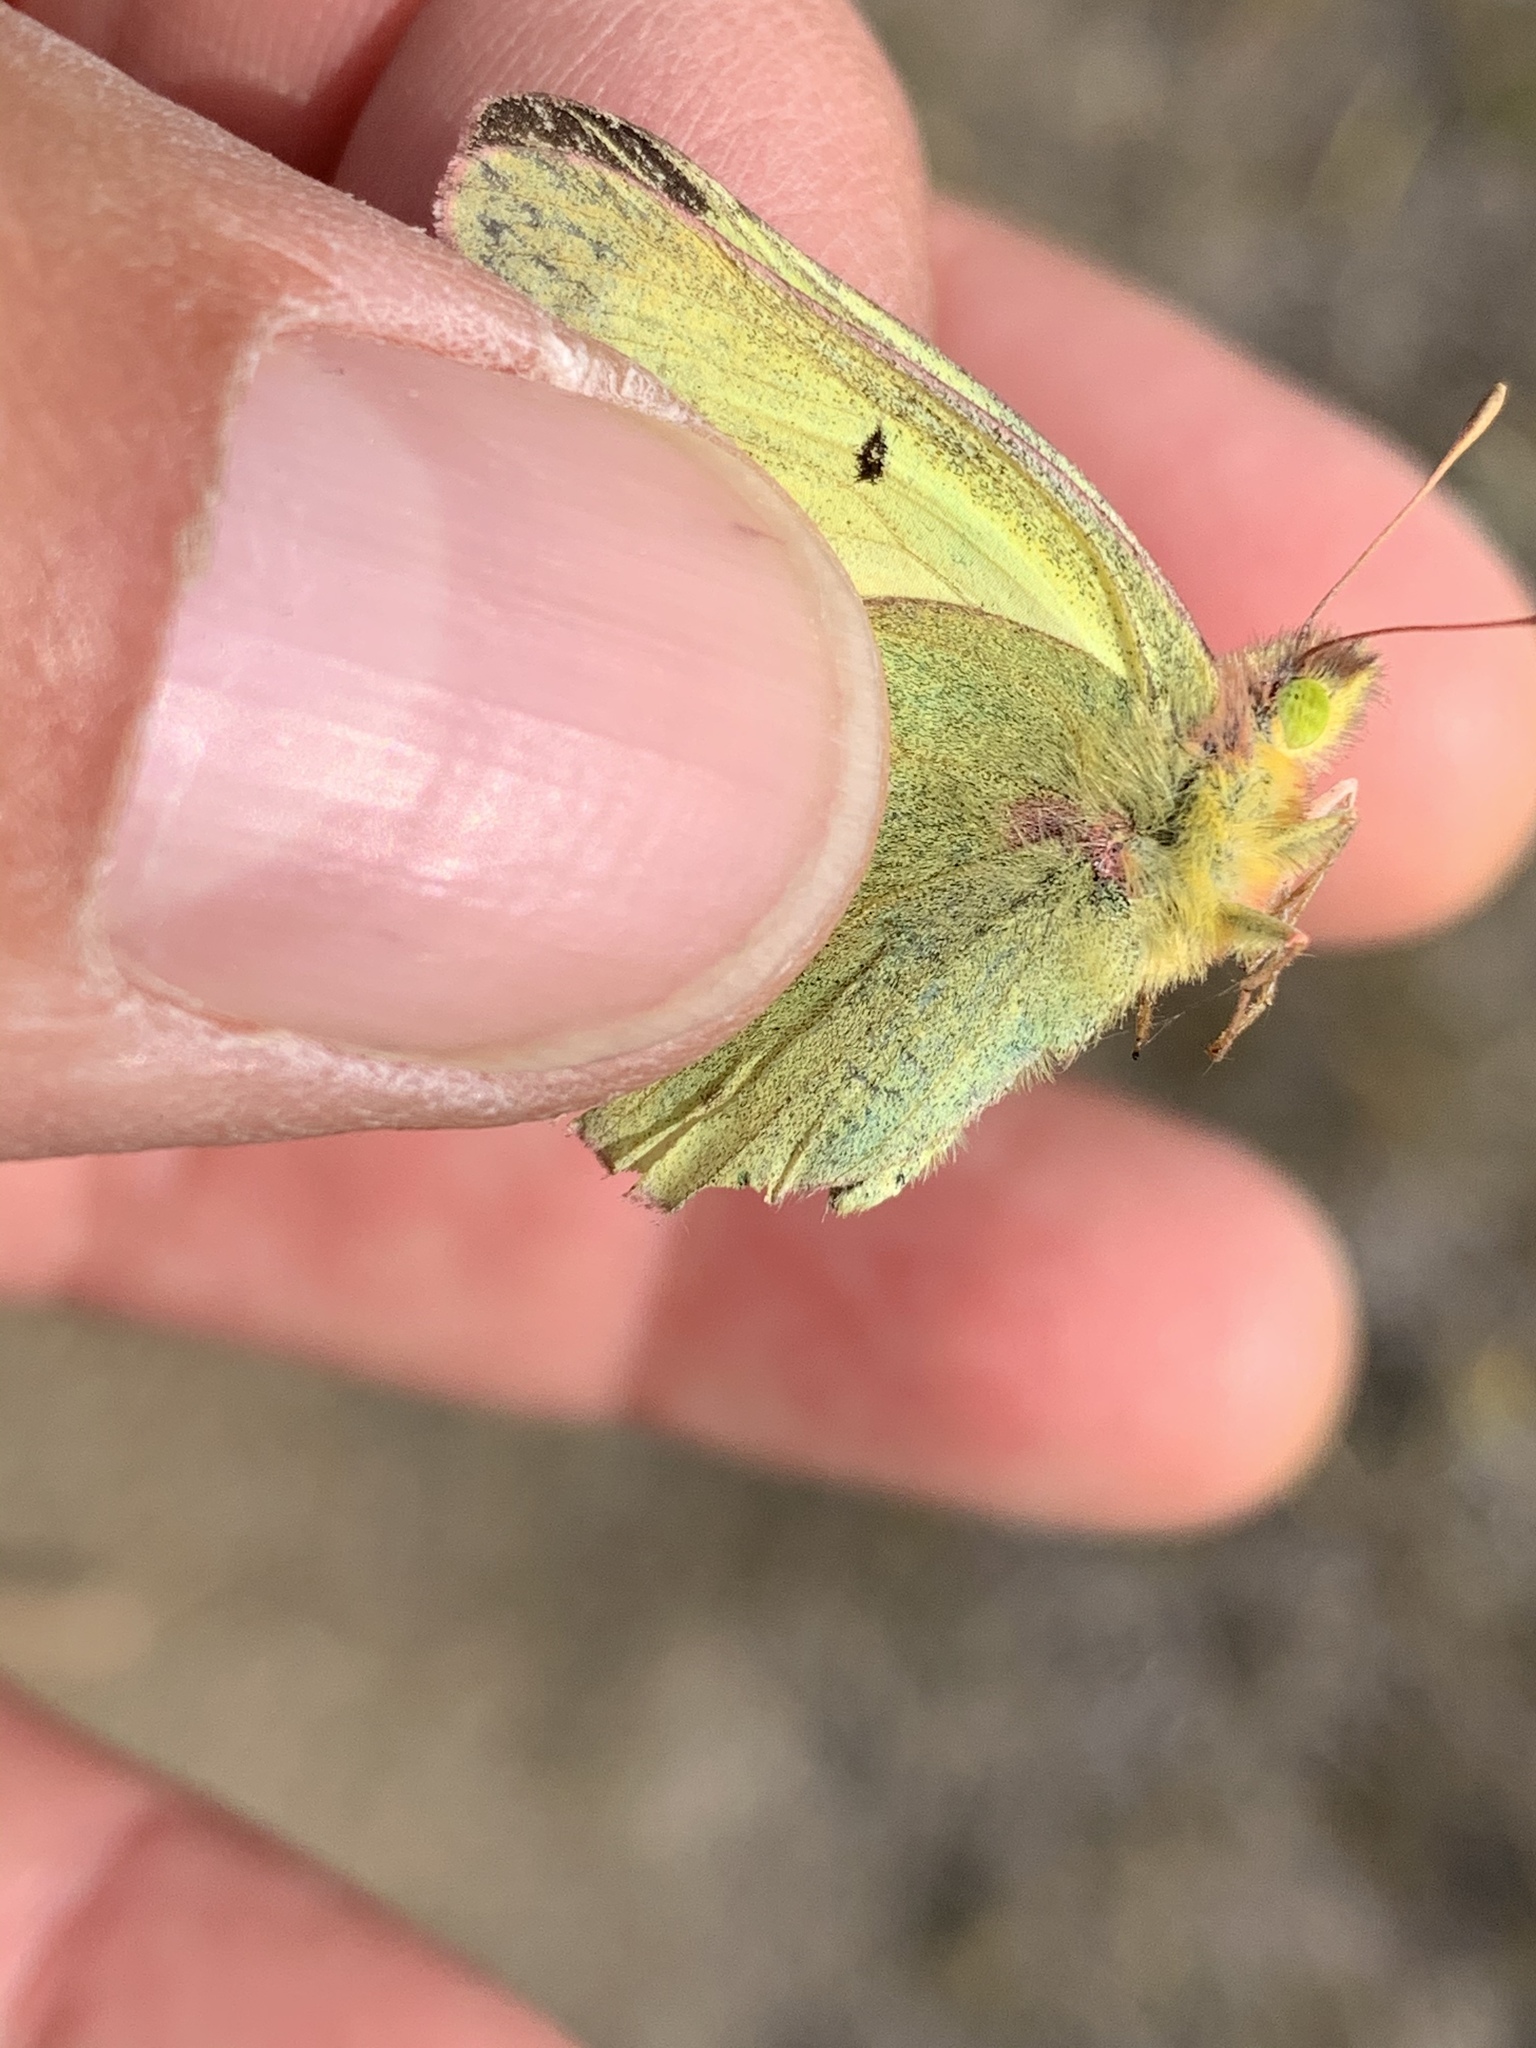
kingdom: Animalia
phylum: Arthropoda
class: Insecta
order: Lepidoptera
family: Pieridae
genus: Colias
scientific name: Colias philodice
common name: Clouded sulphur
